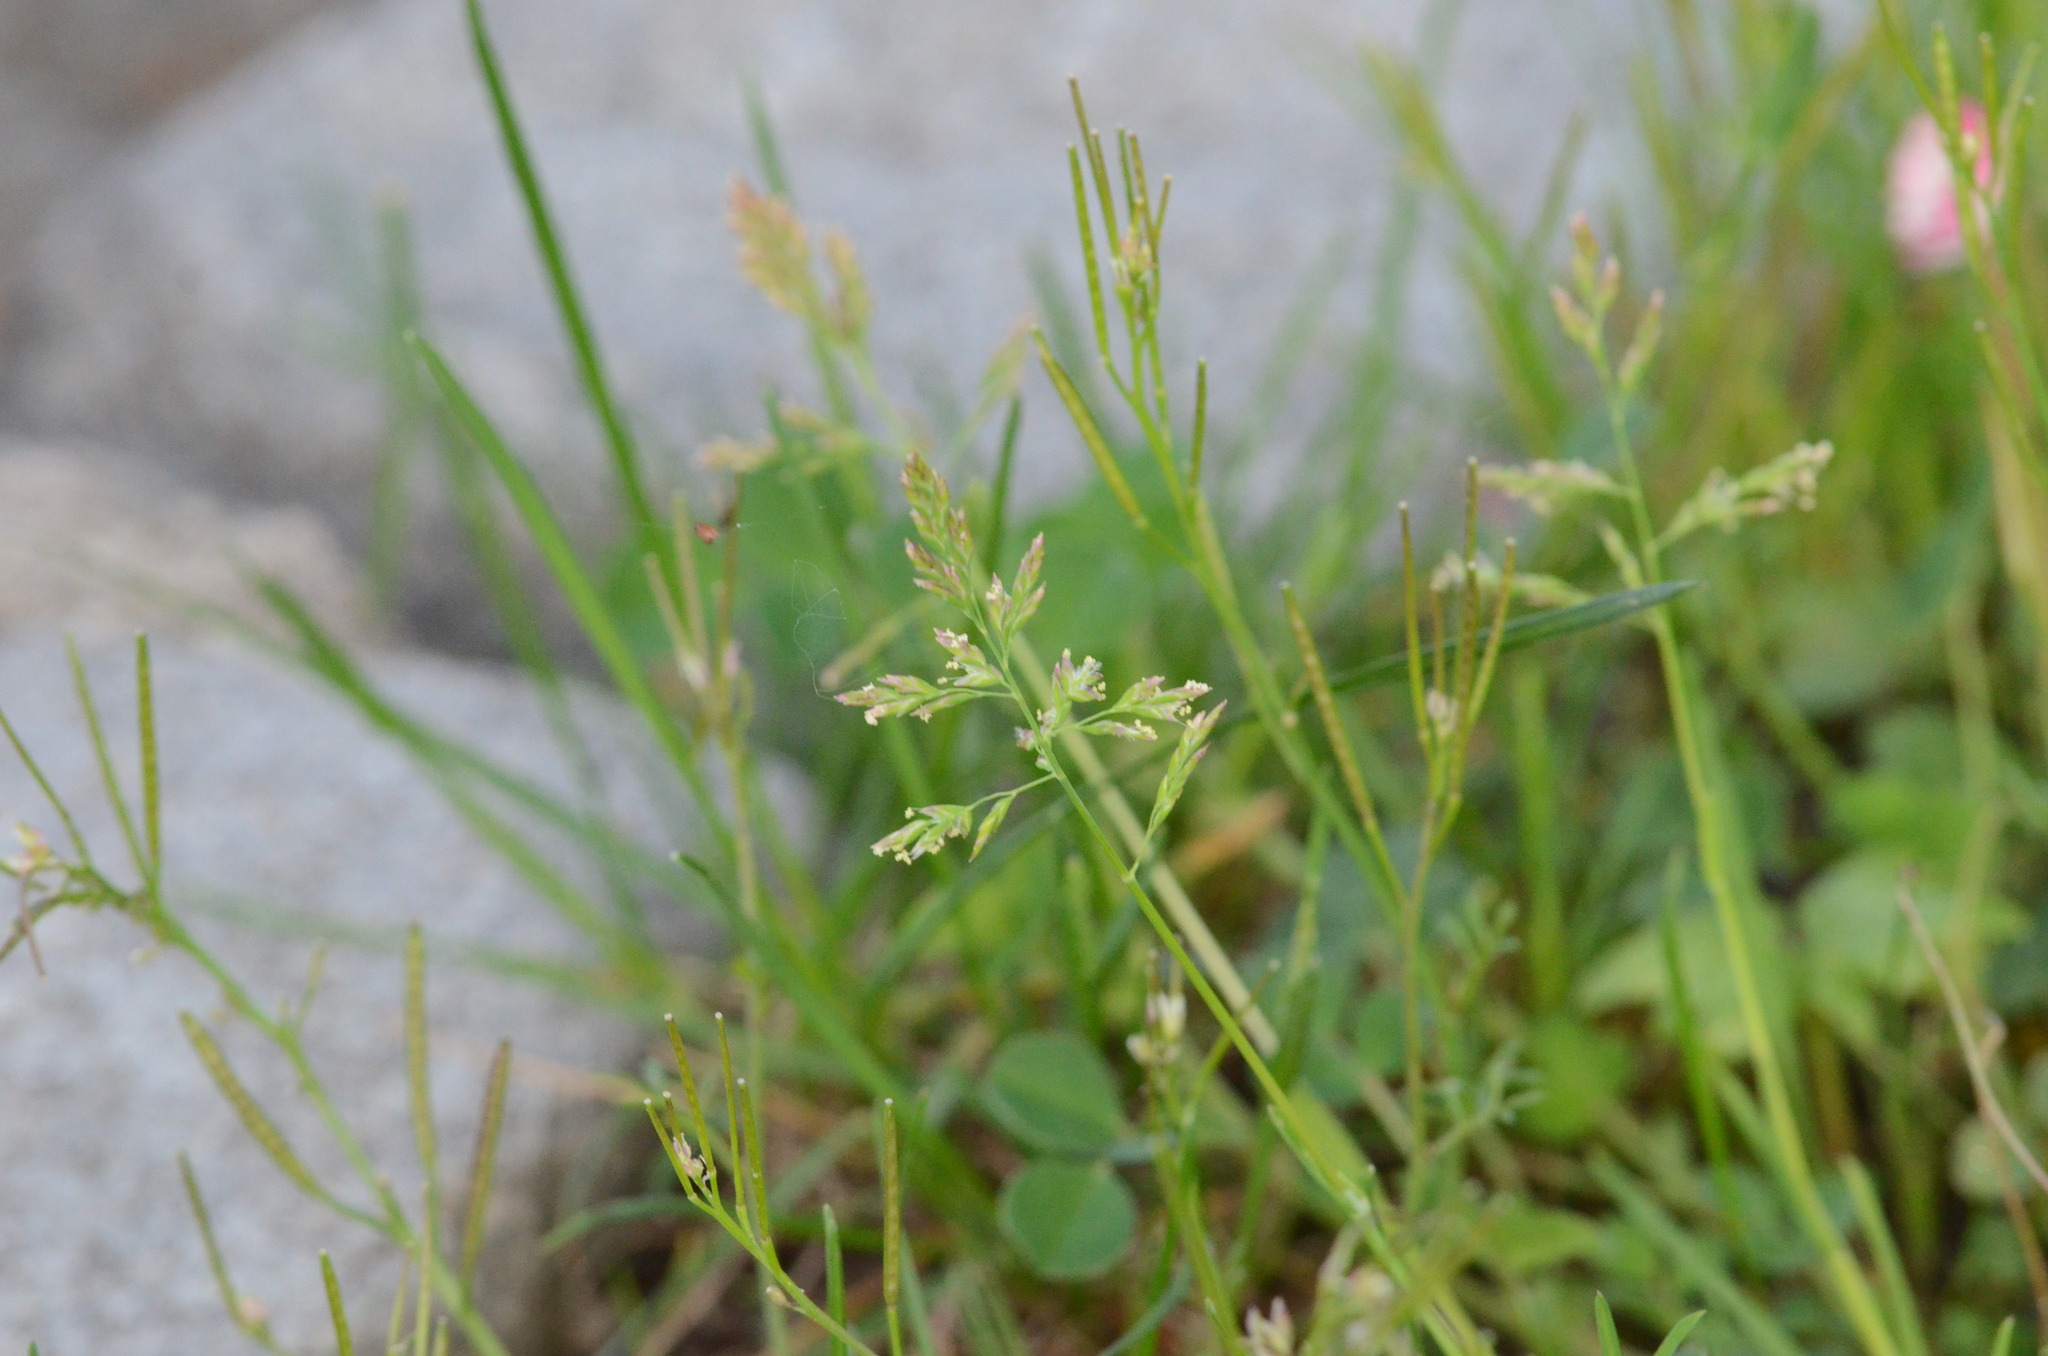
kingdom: Plantae
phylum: Tracheophyta
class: Liliopsida
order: Poales
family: Poaceae
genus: Poa
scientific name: Poa annua
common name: Annual bluegrass
